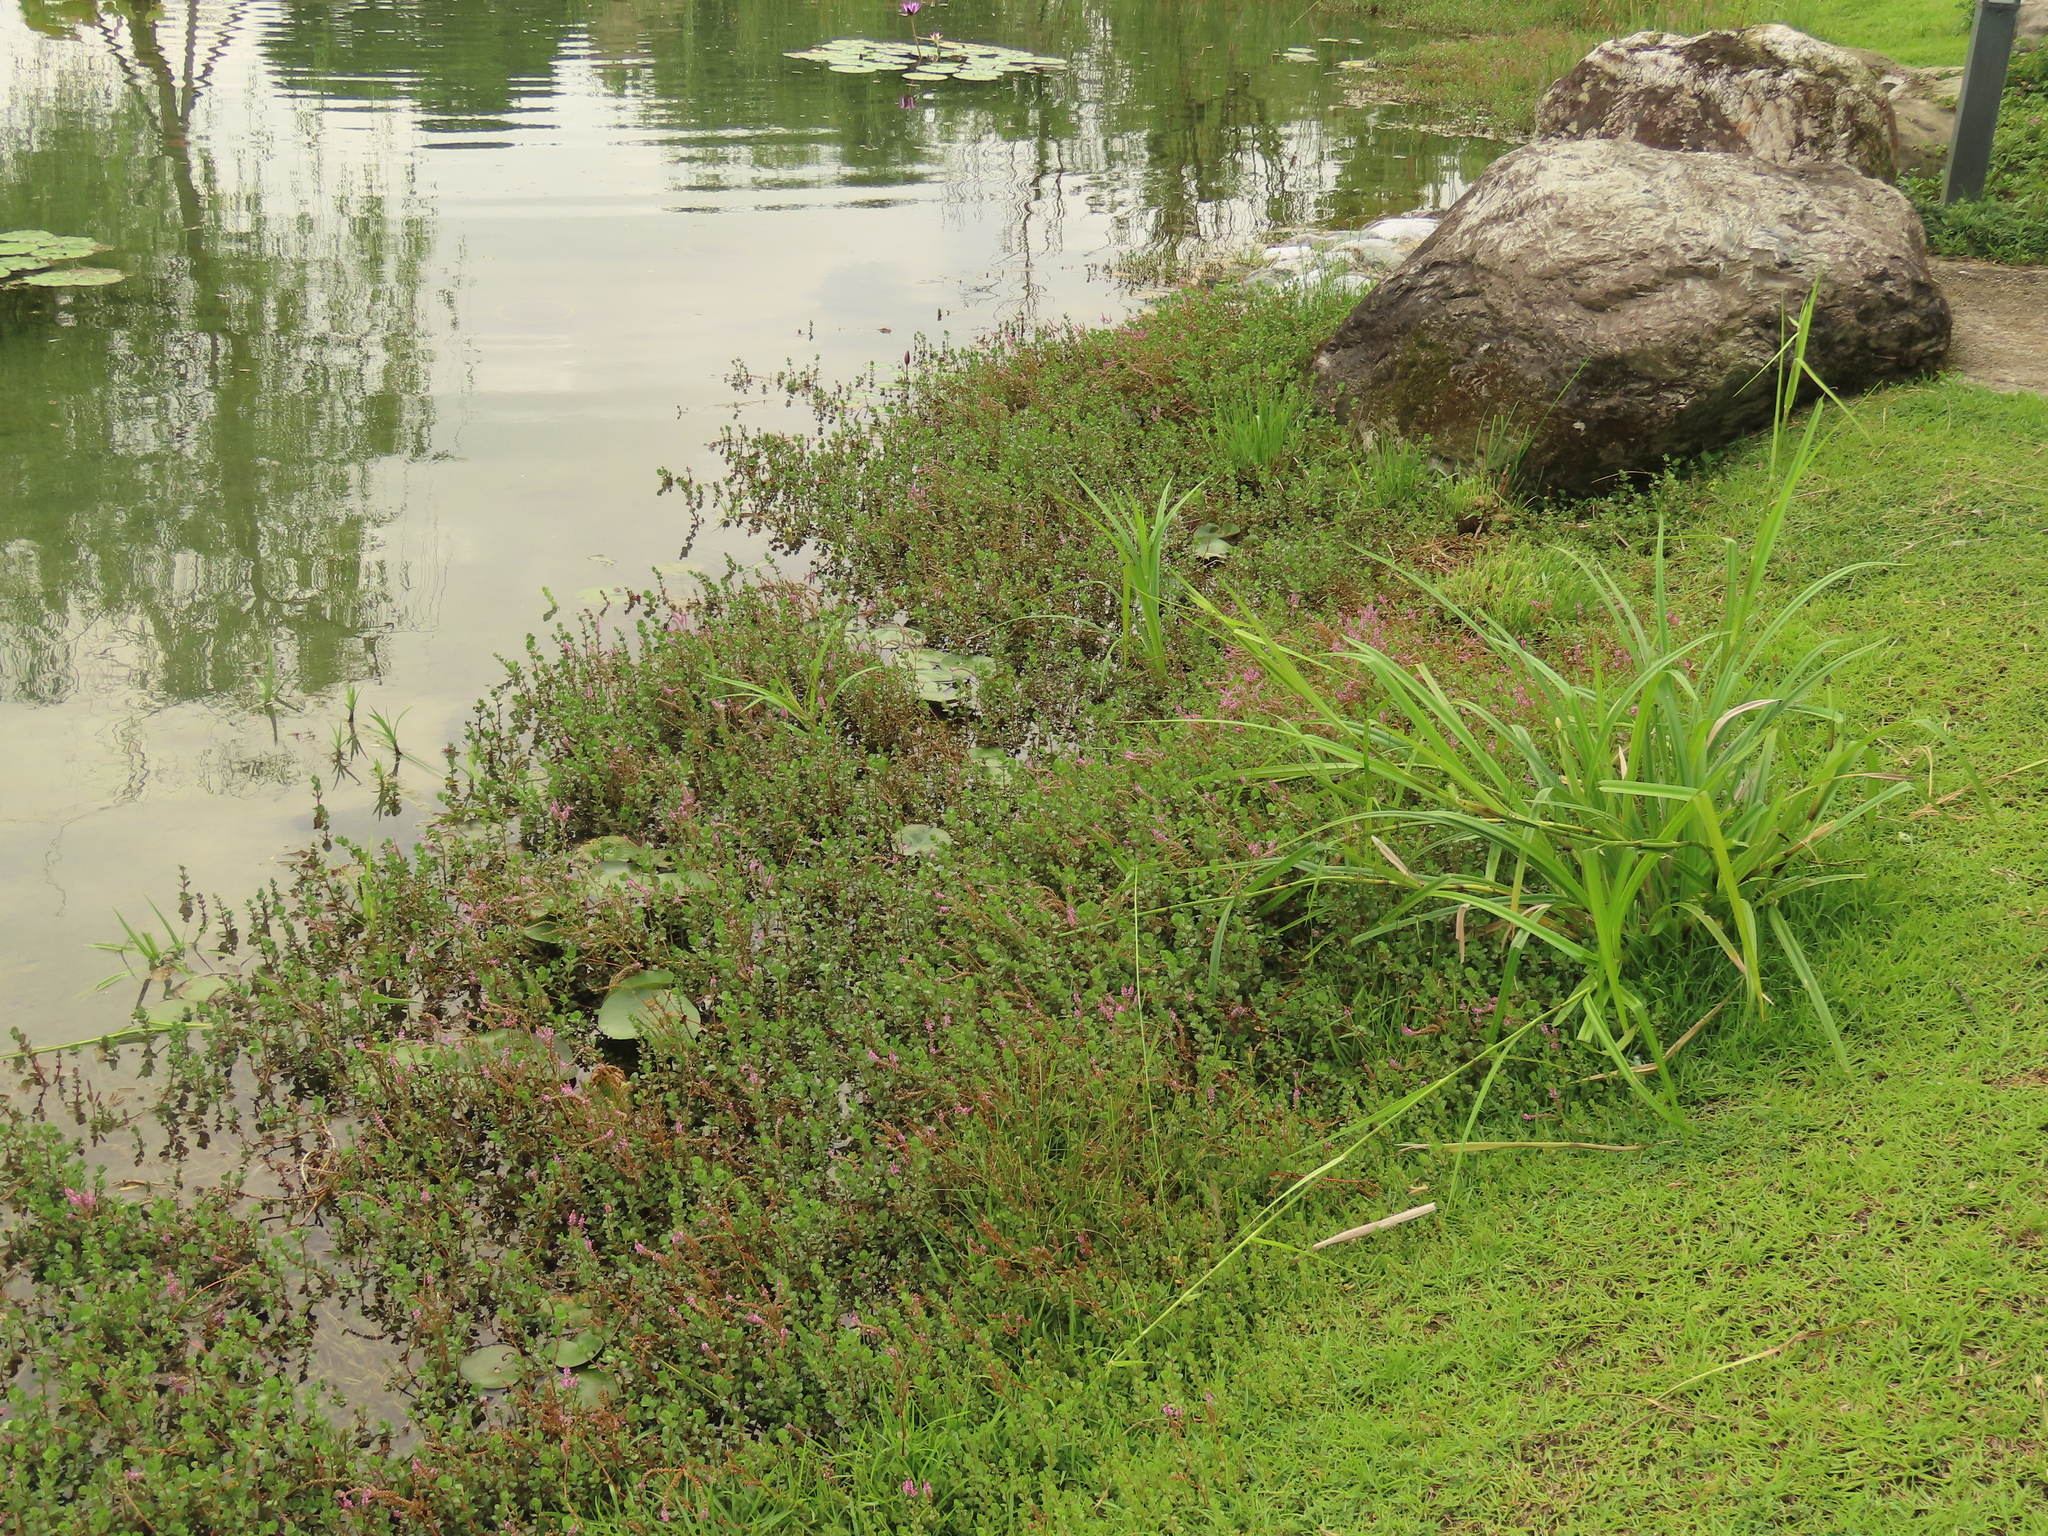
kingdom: Plantae
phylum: Tracheophyta
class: Liliopsida
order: Poales
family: Cyperaceae
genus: Scirpus
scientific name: Scirpus ternatanus
